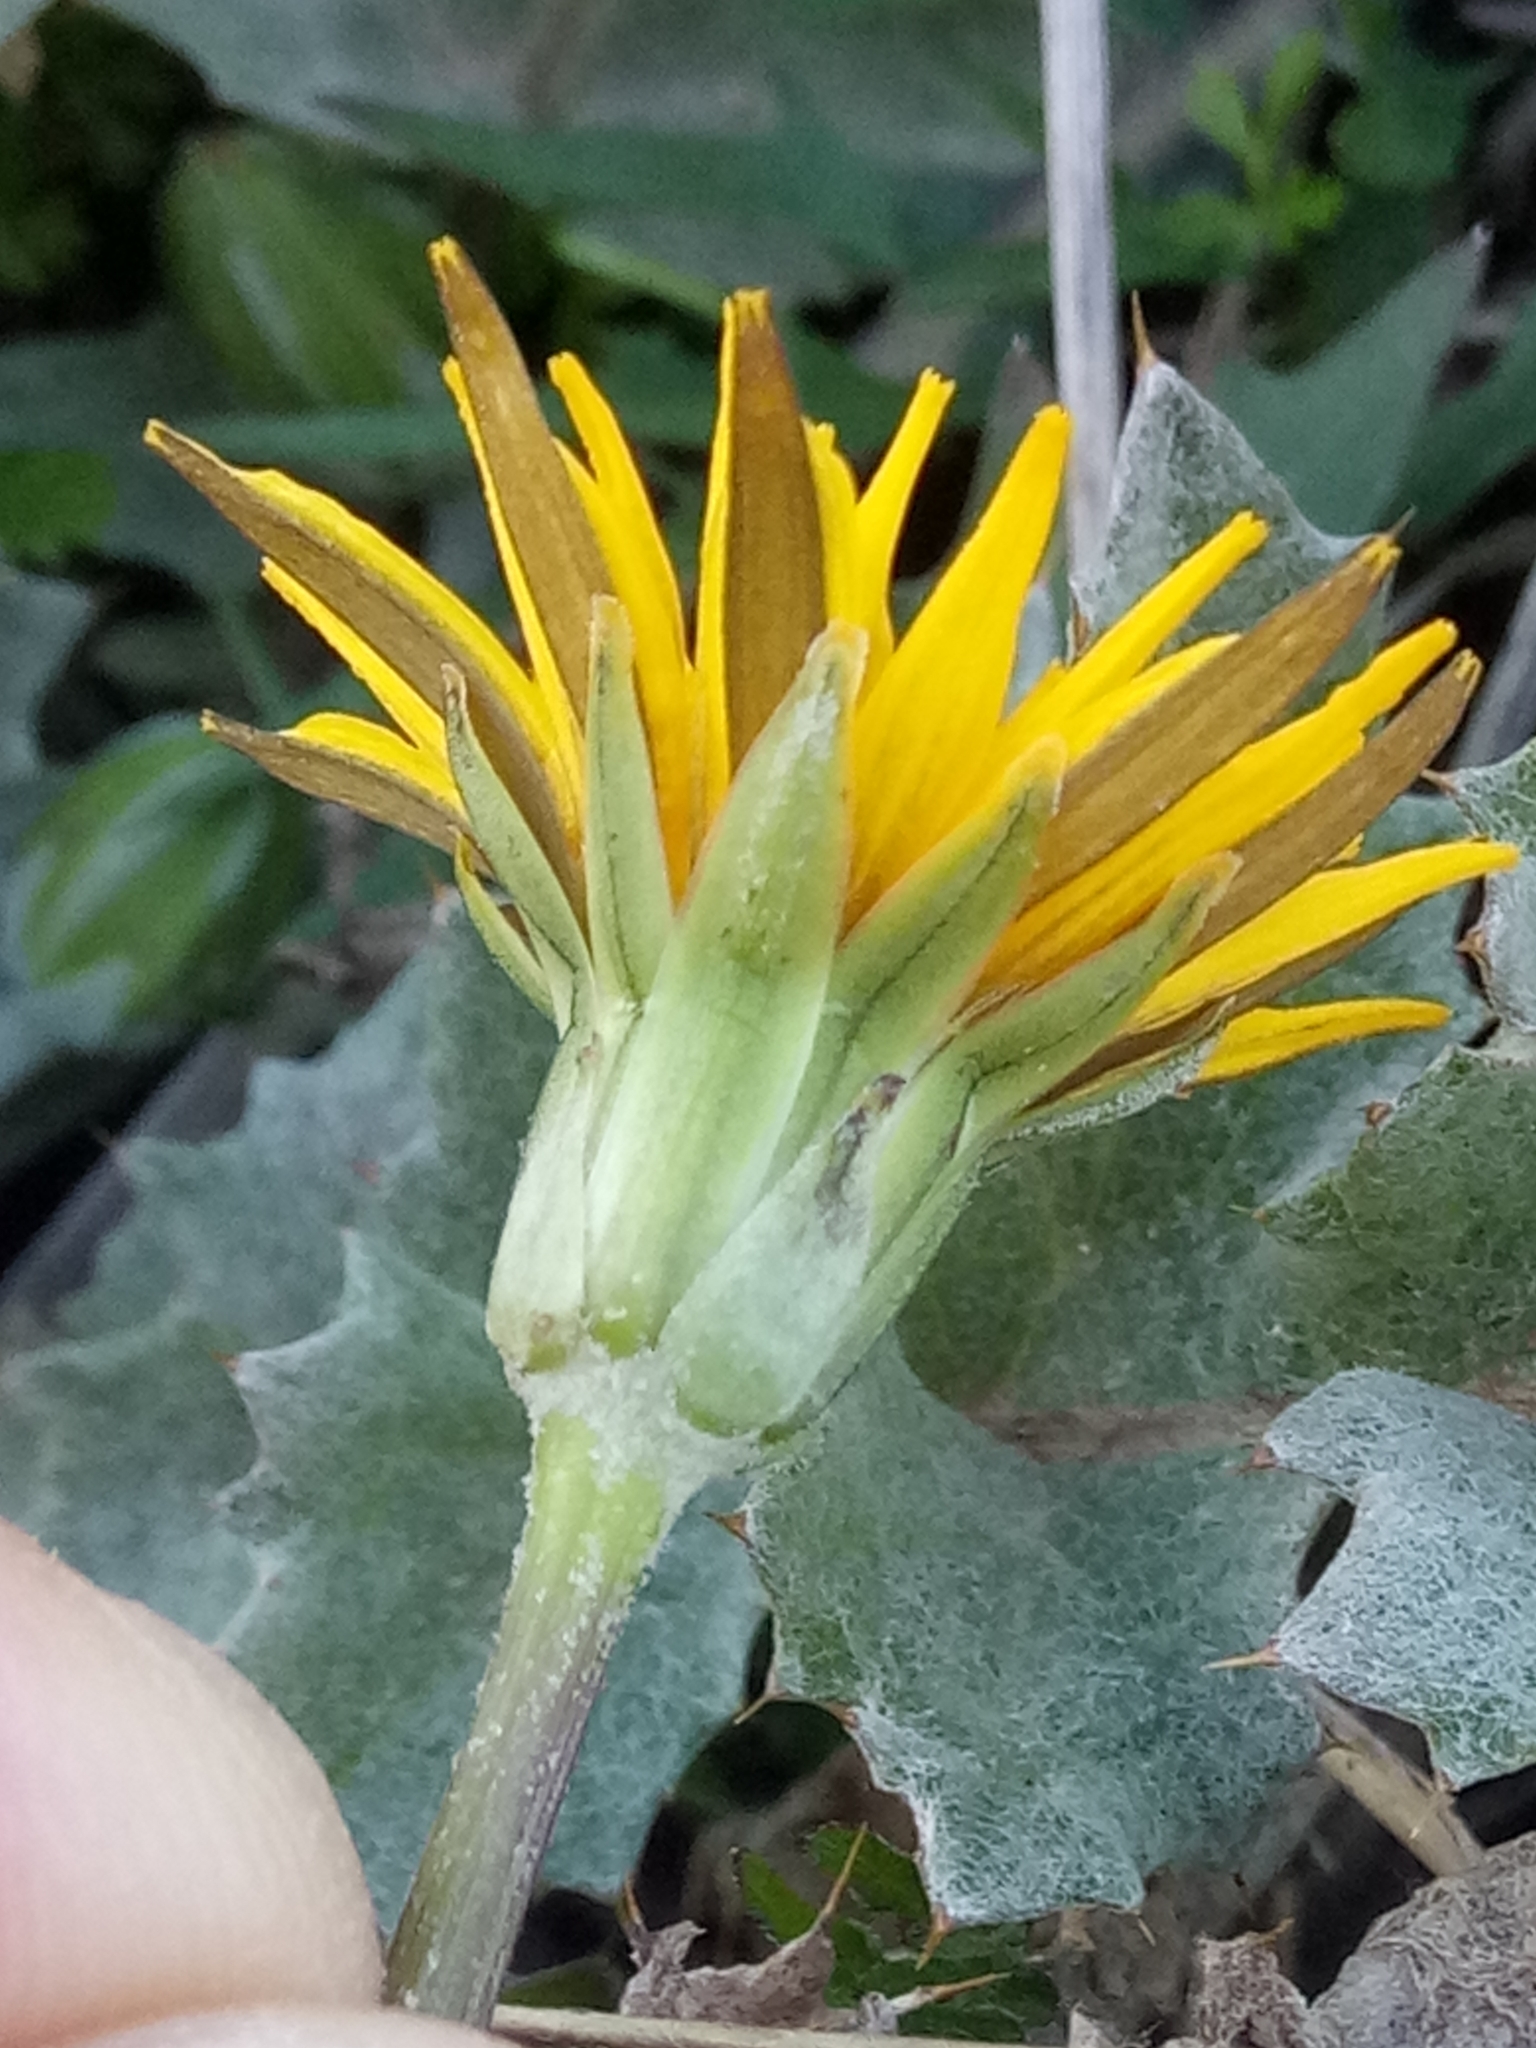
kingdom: Plantae
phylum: Tracheophyta
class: Magnoliopsida
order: Asterales
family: Asteraceae
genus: Hyoseris
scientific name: Hyoseris radiata
